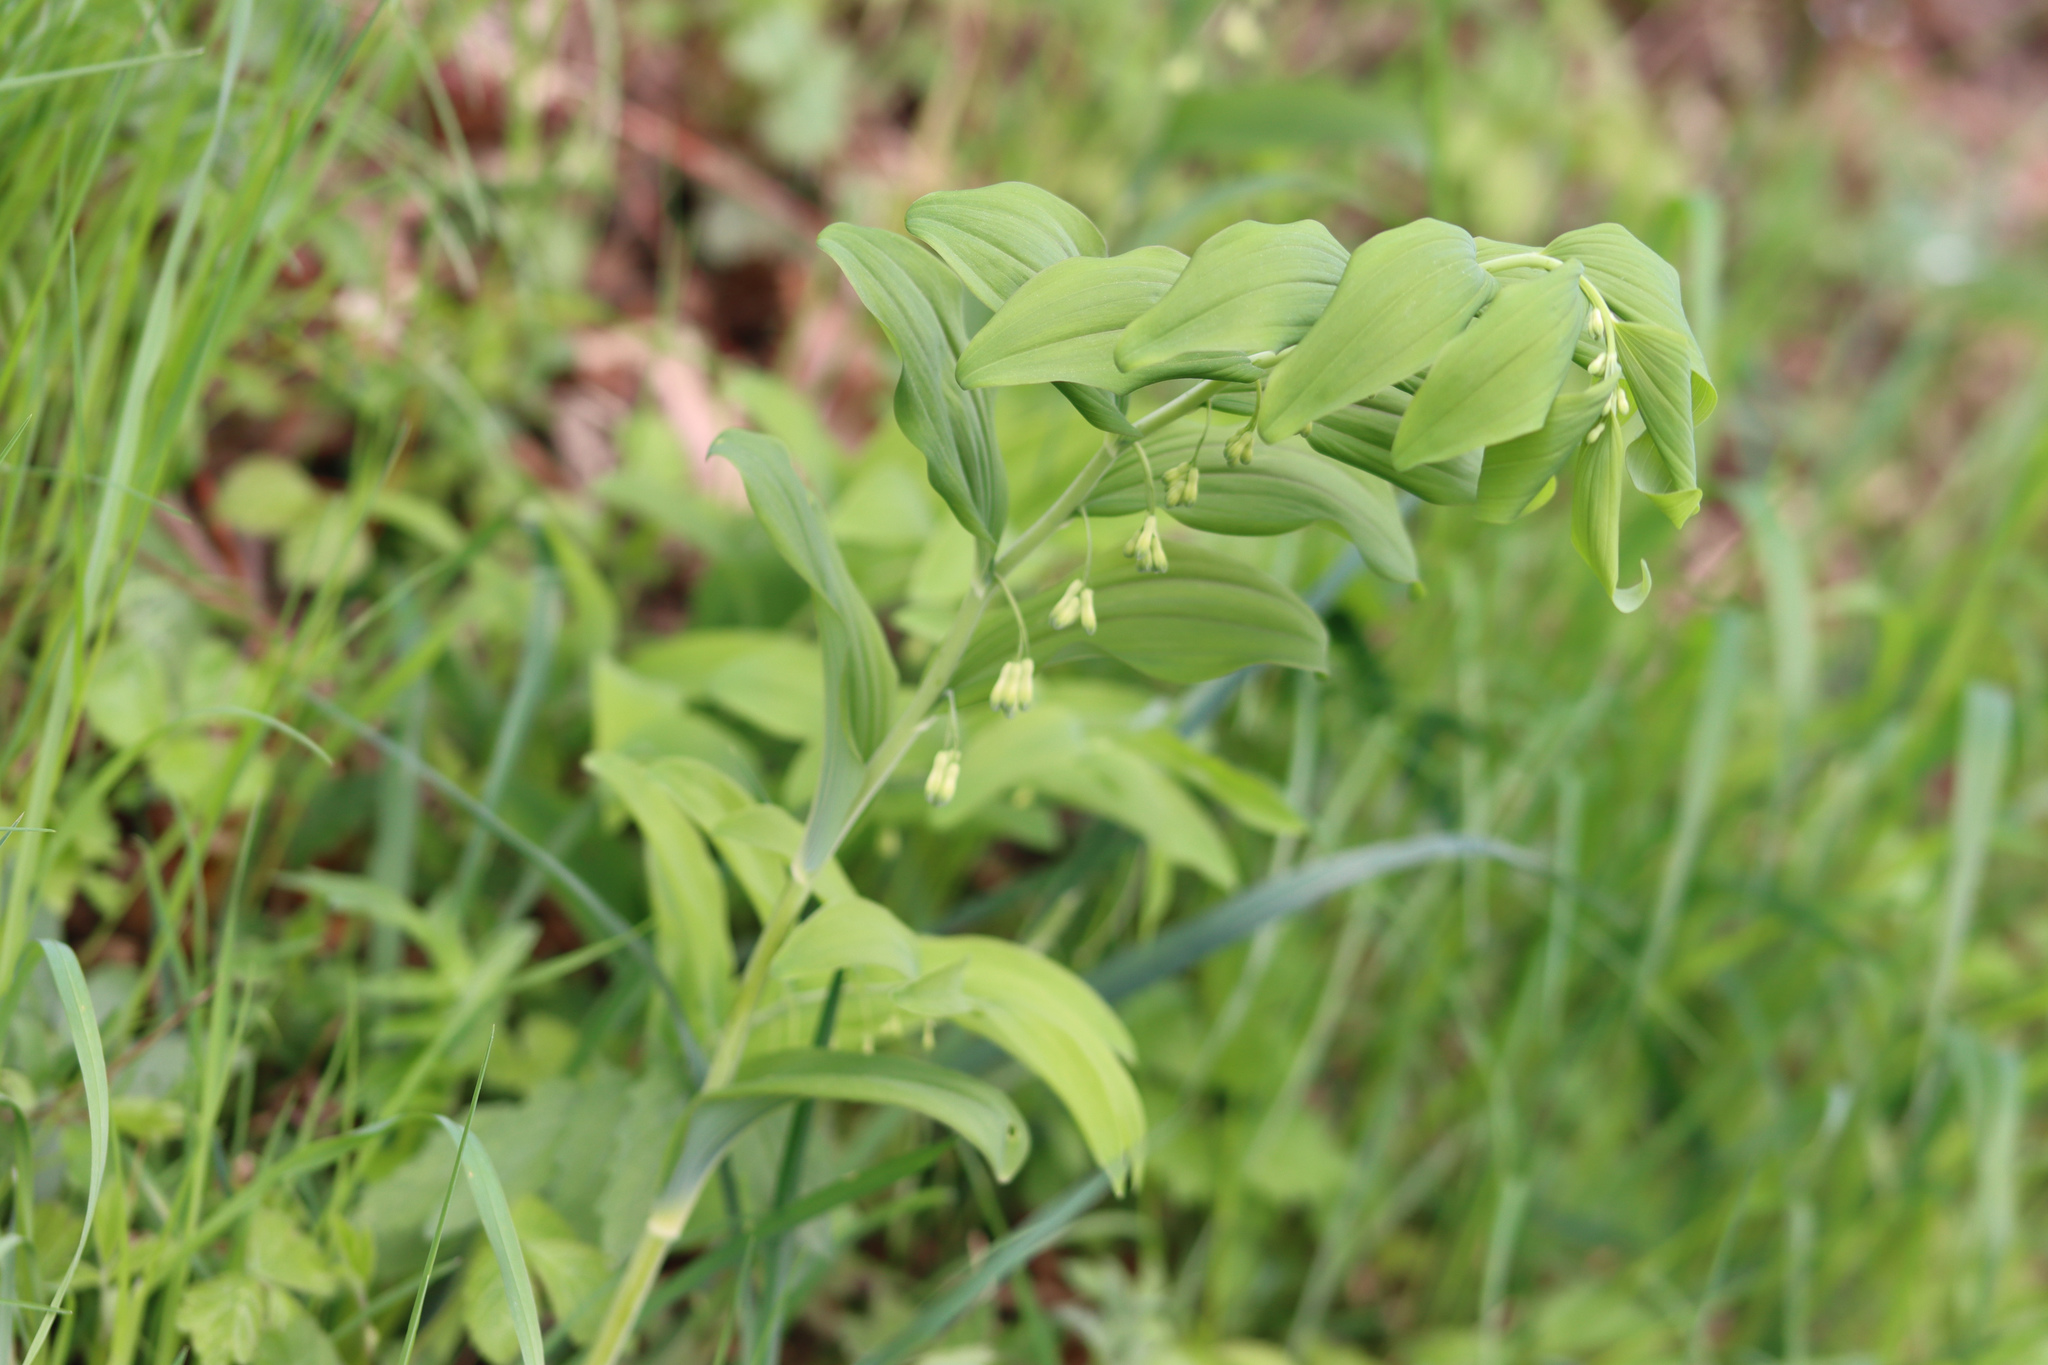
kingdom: Plantae
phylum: Tracheophyta
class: Liliopsida
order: Asparagales
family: Asparagaceae
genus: Polygonatum
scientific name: Polygonatum multiflorum
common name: Solomon's-seal
